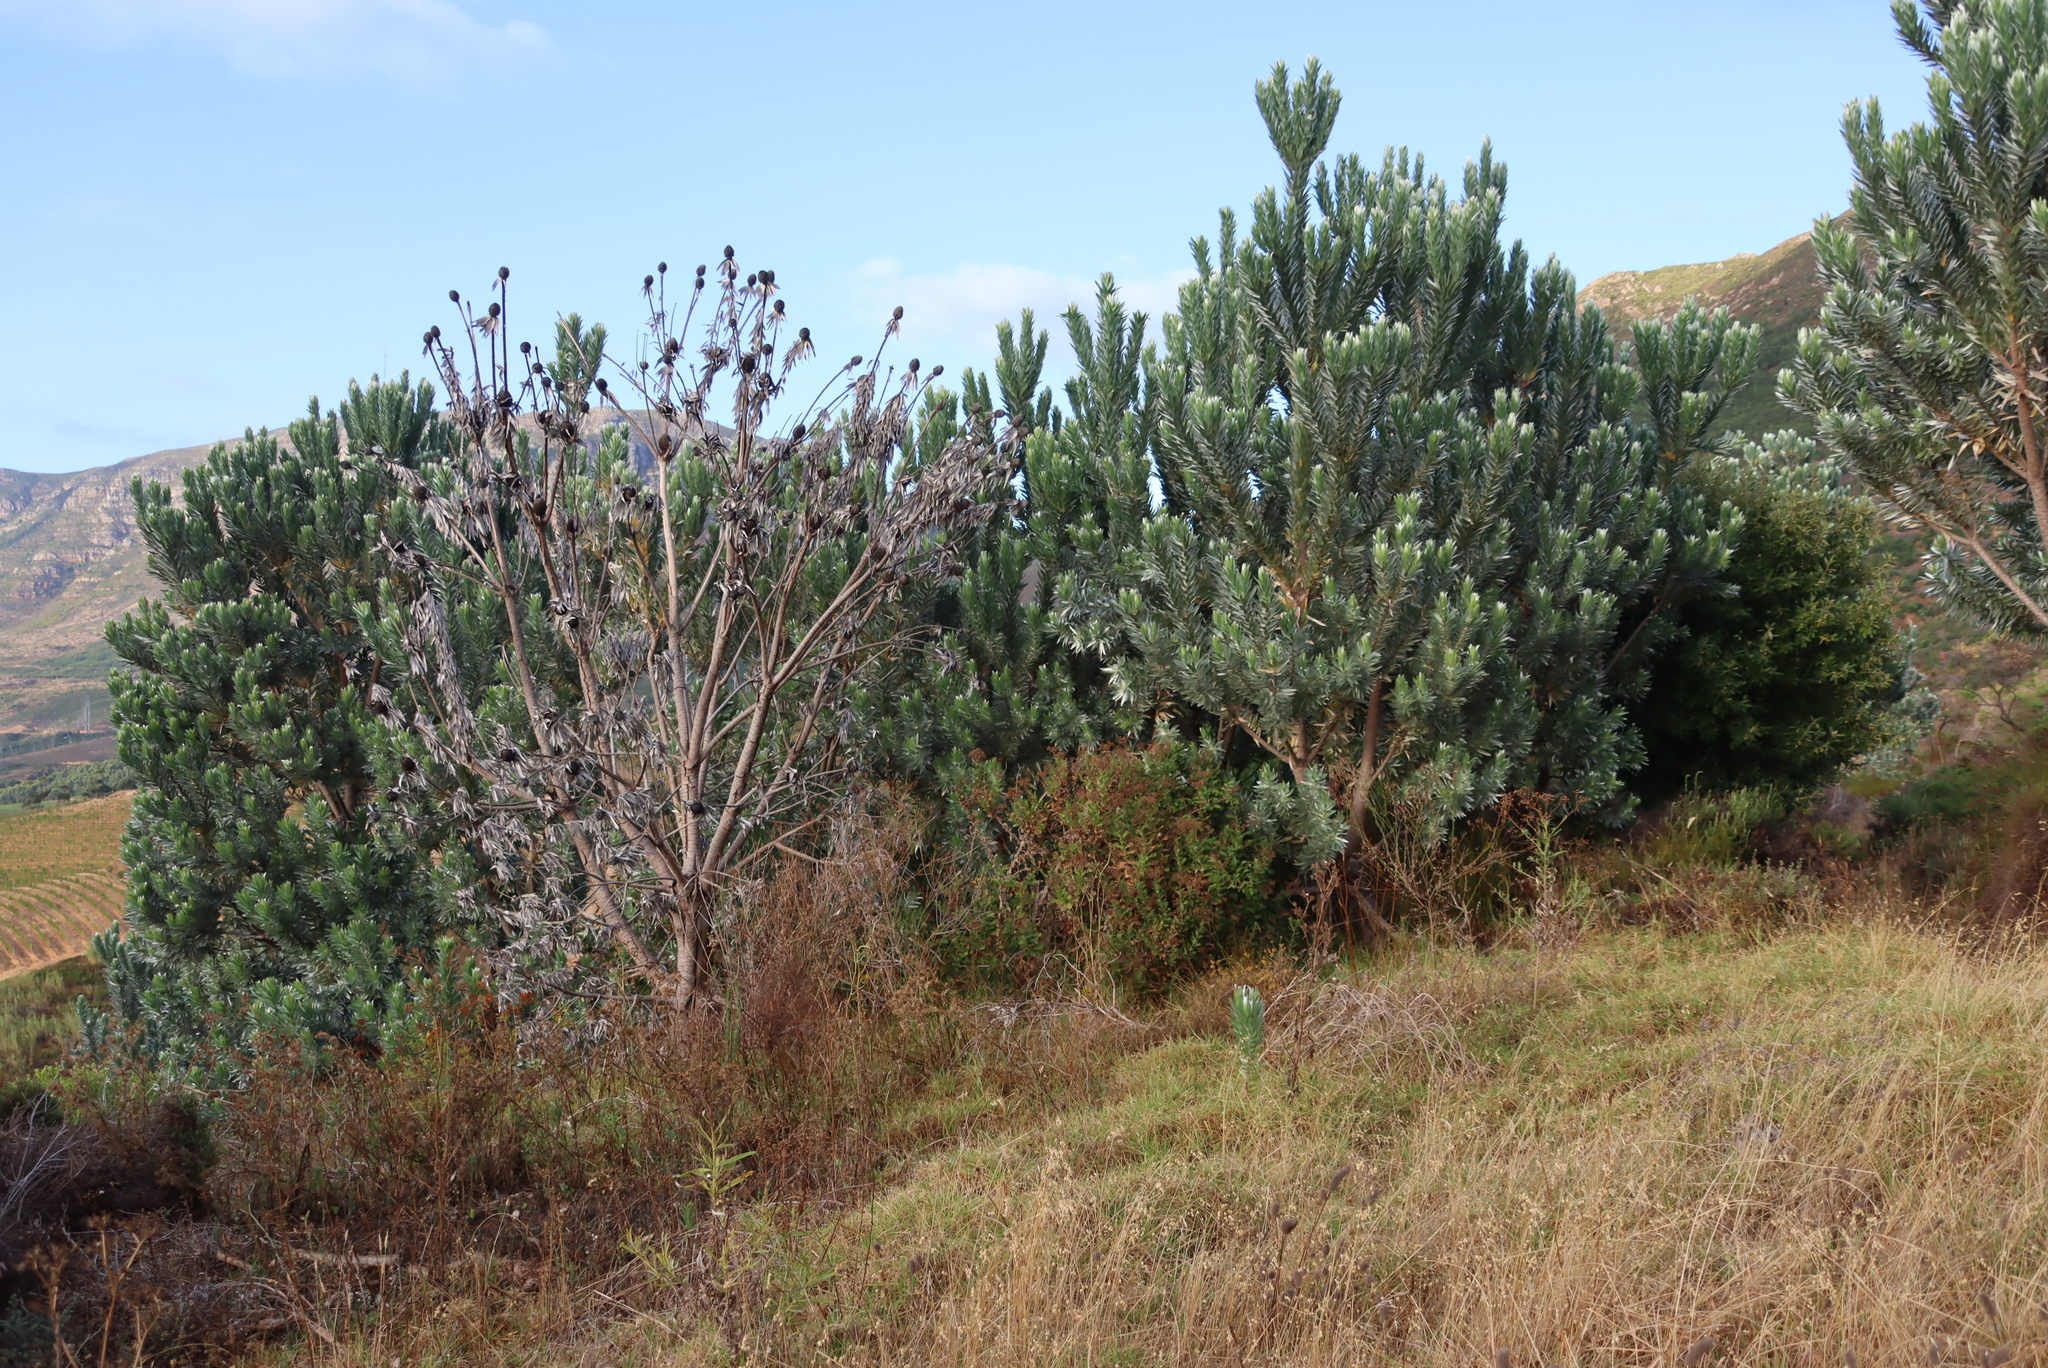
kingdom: Plantae
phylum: Tracheophyta
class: Magnoliopsida
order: Proteales
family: Proteaceae
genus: Leucadendron
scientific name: Leucadendron argenteum
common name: Cape silver tree
